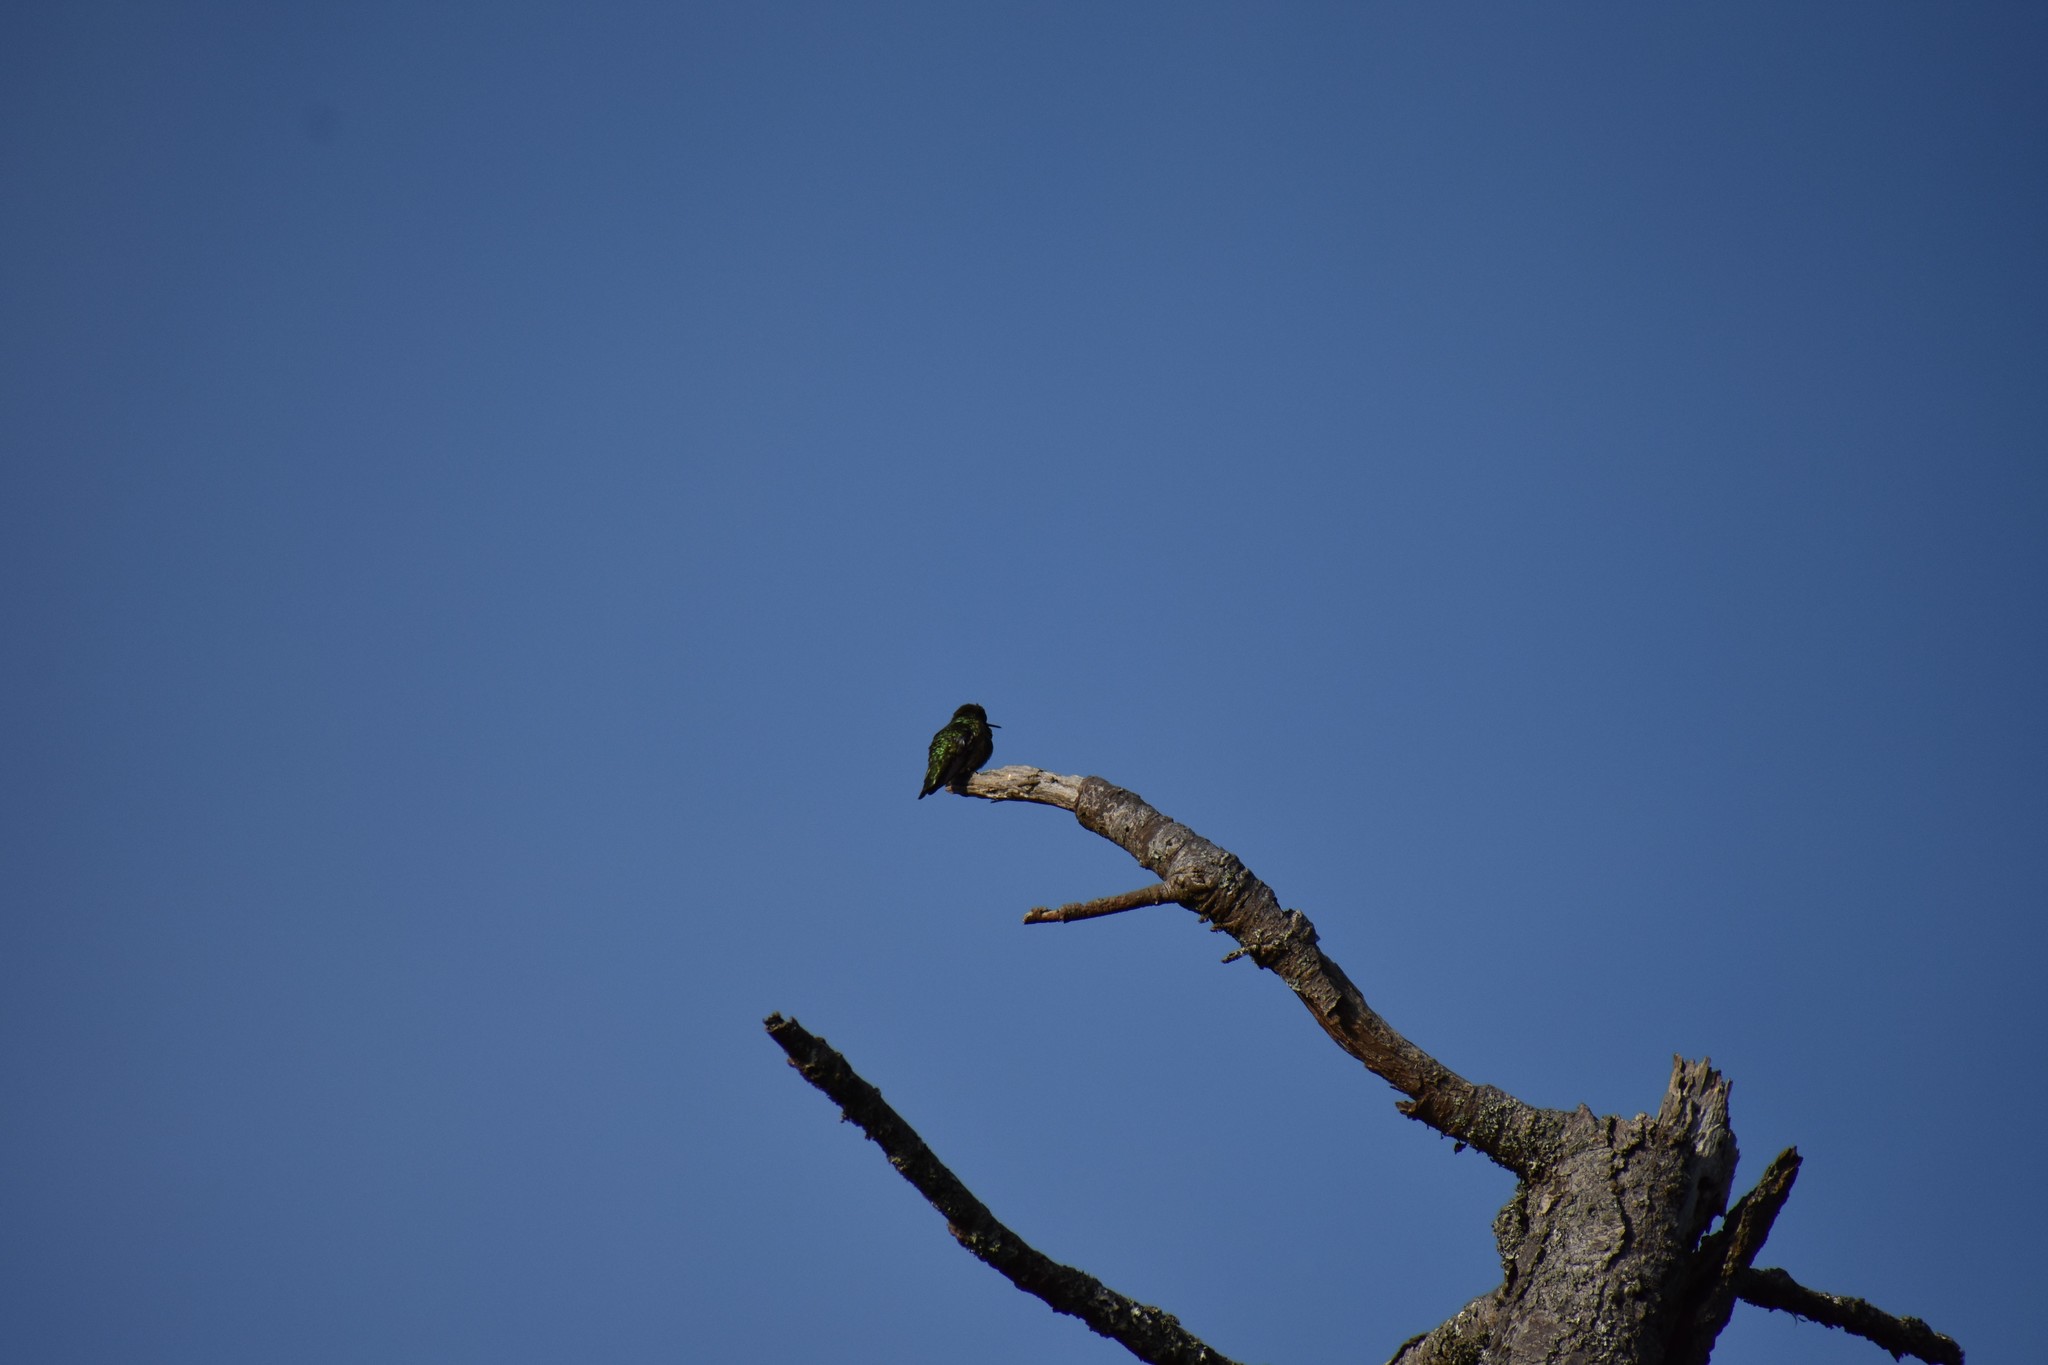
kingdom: Animalia
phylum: Chordata
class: Aves
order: Apodiformes
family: Trochilidae
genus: Calypte
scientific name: Calypte anna
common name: Anna's hummingbird
